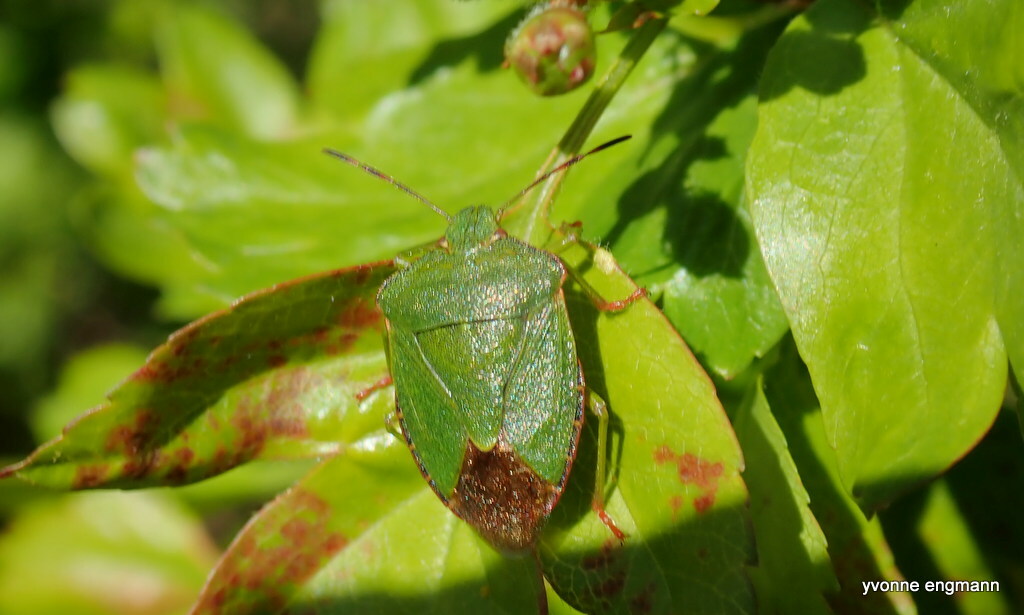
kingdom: Animalia
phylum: Arthropoda
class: Insecta
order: Hemiptera
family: Pentatomidae
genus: Palomena
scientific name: Palomena prasina
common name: Green shieldbug
